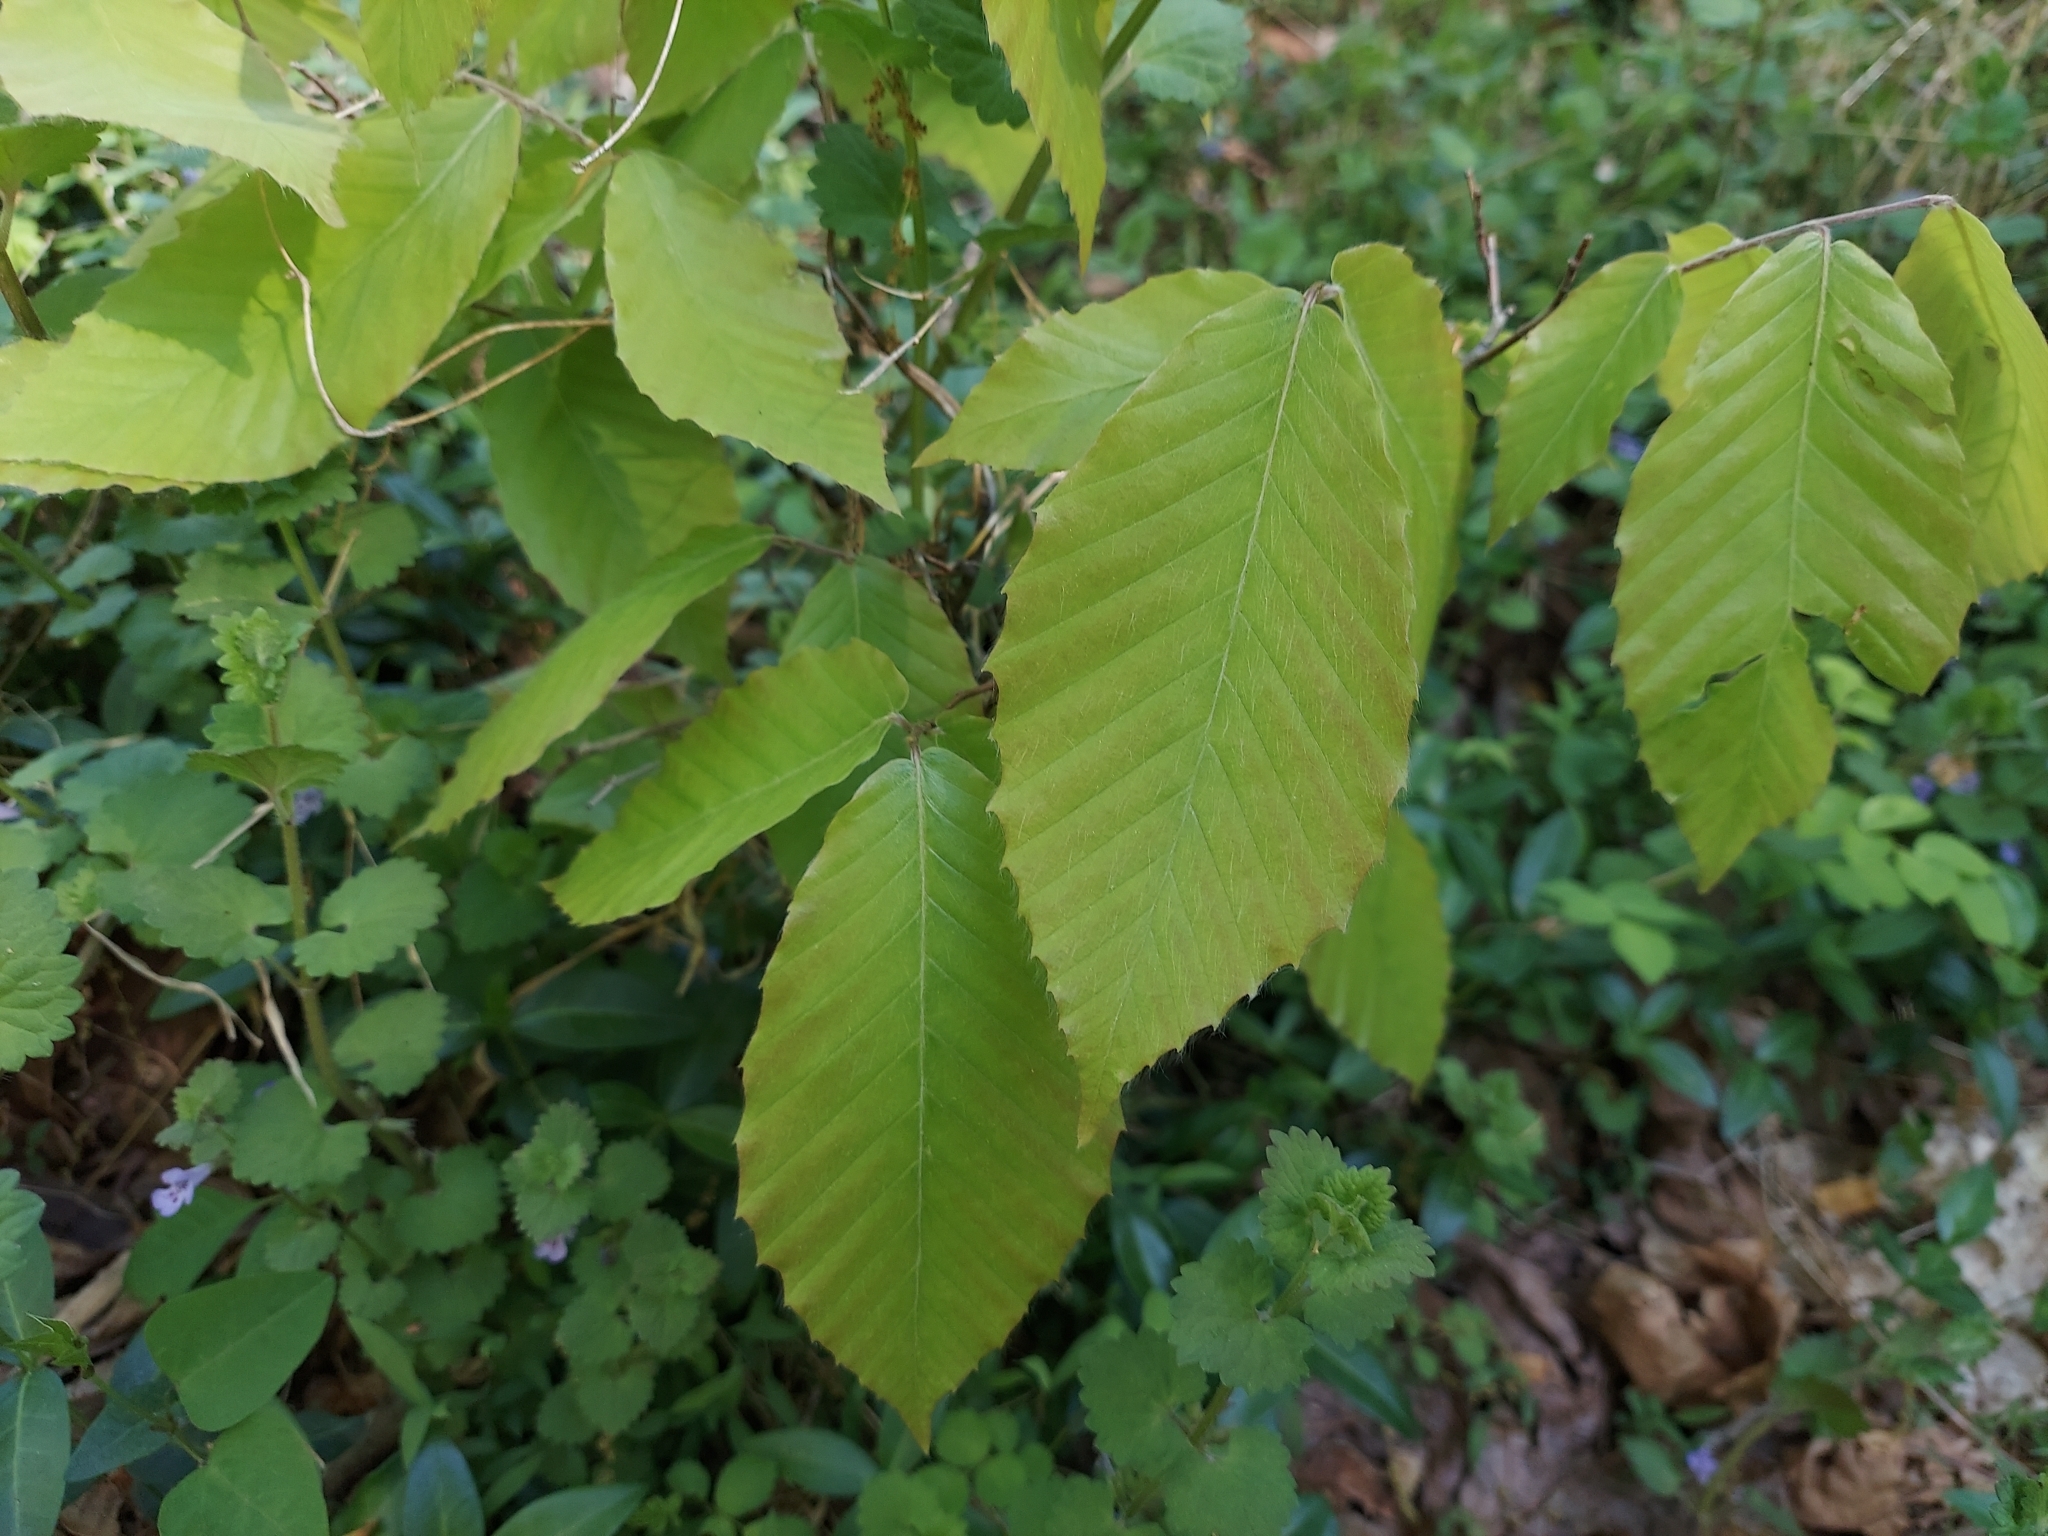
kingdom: Plantae
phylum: Tracheophyta
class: Magnoliopsida
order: Fagales
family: Fagaceae
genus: Fagus
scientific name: Fagus grandifolia
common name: American beech
